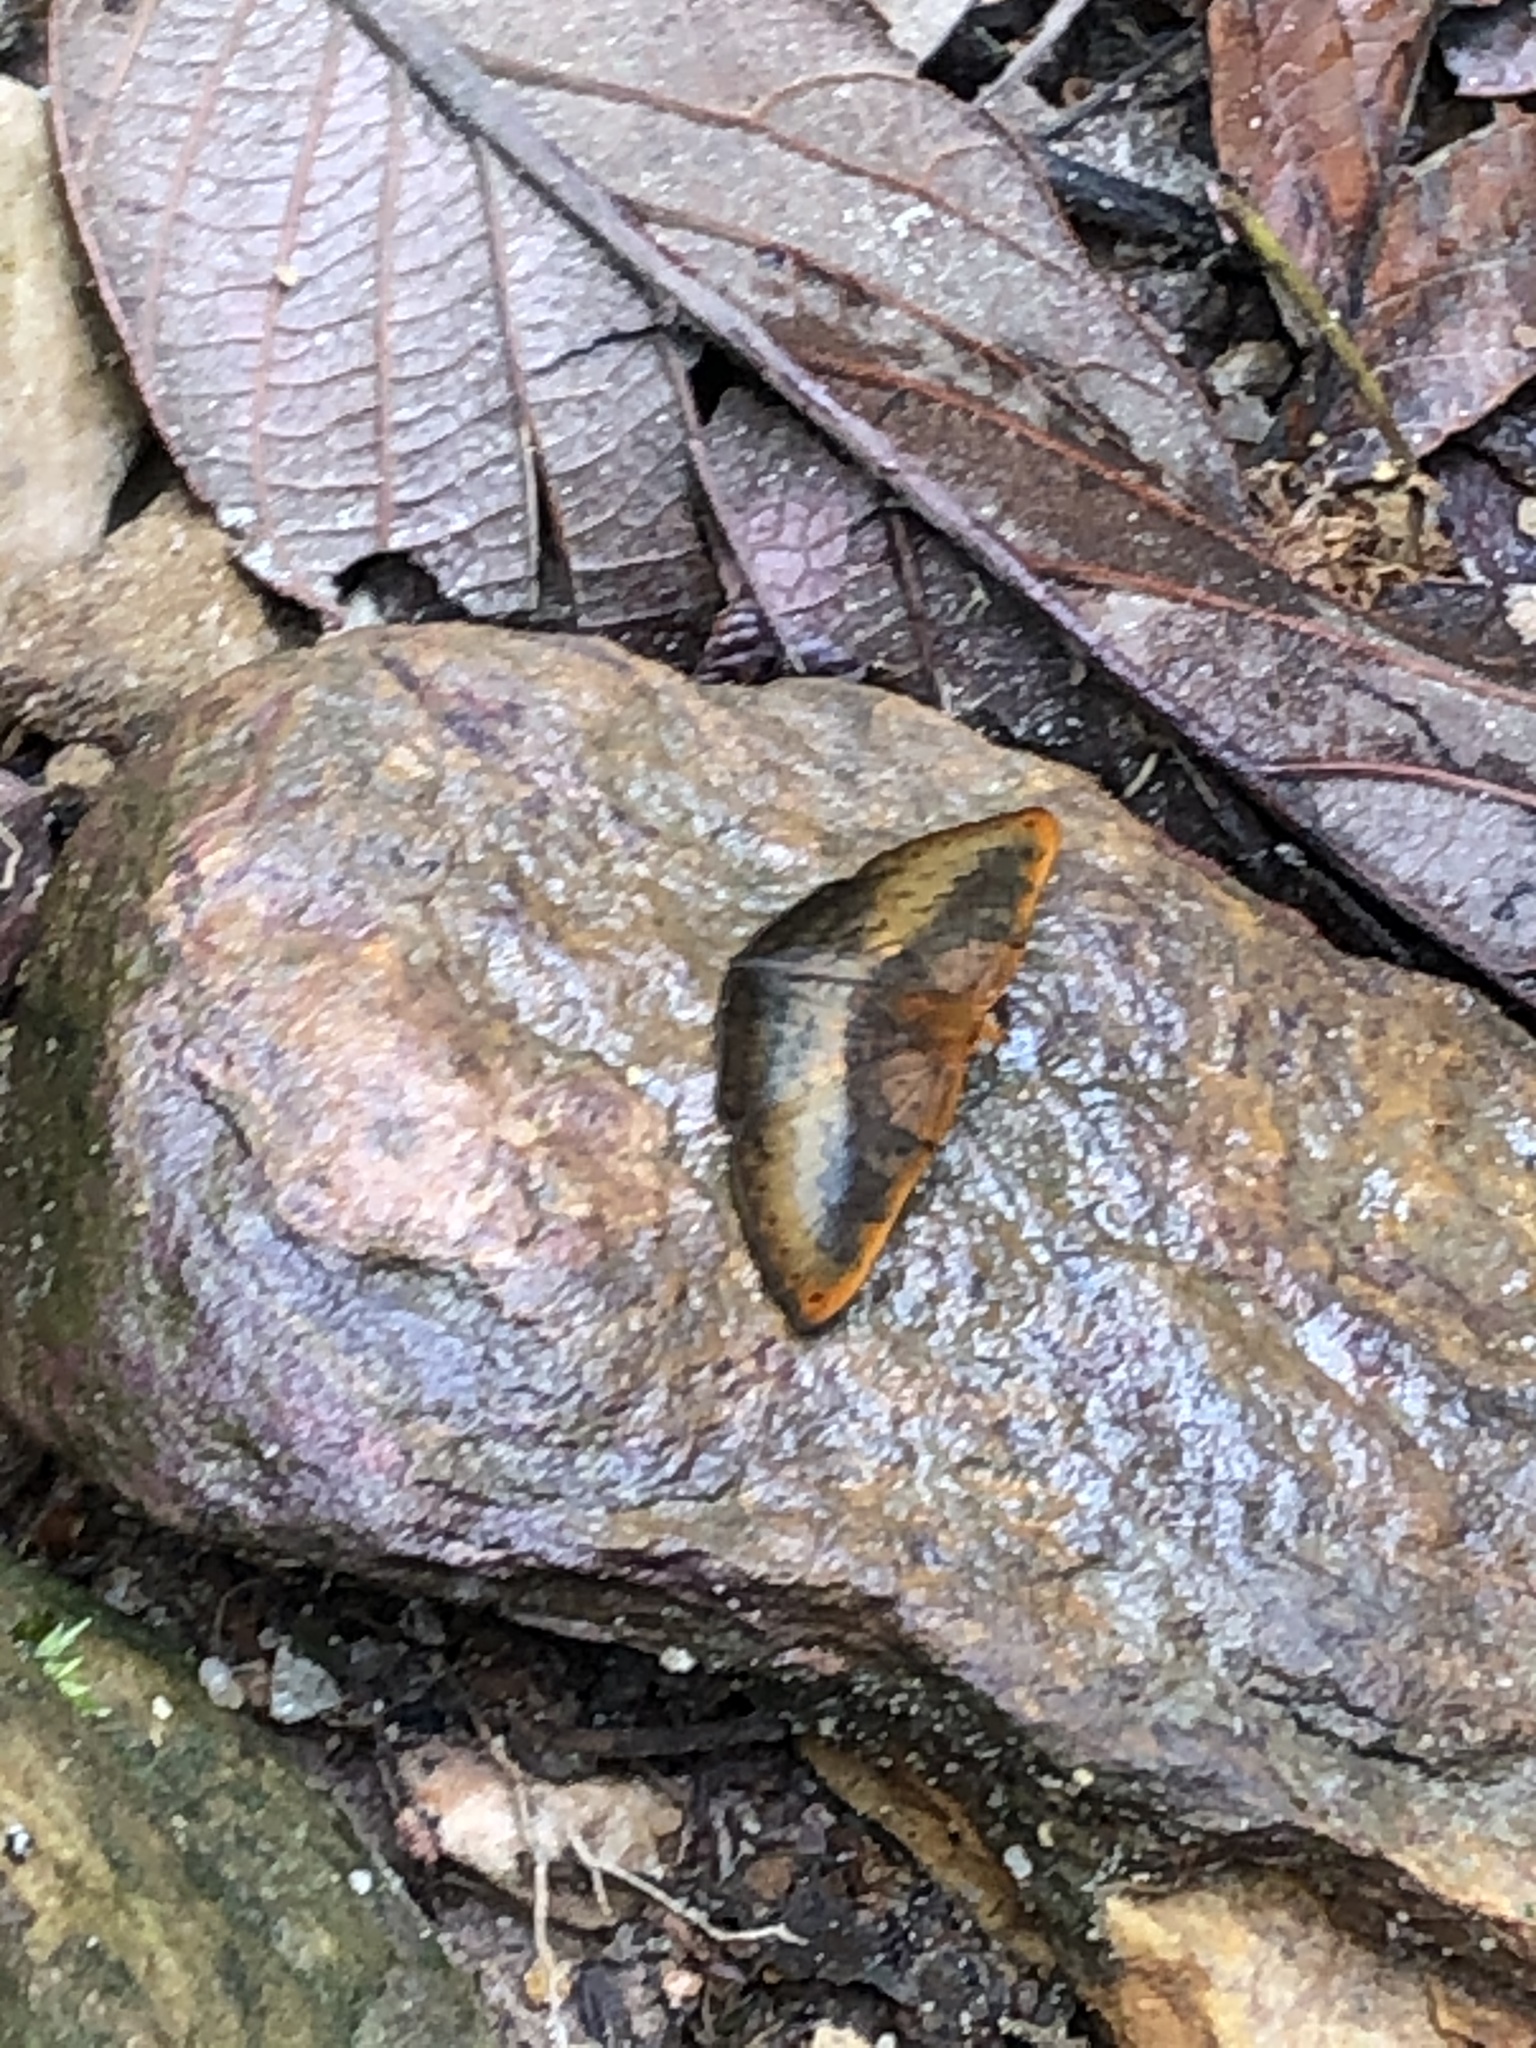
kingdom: Animalia
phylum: Arthropoda
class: Insecta
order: Lepidoptera
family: Lycaenidae
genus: Emesis
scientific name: Emesis progne
